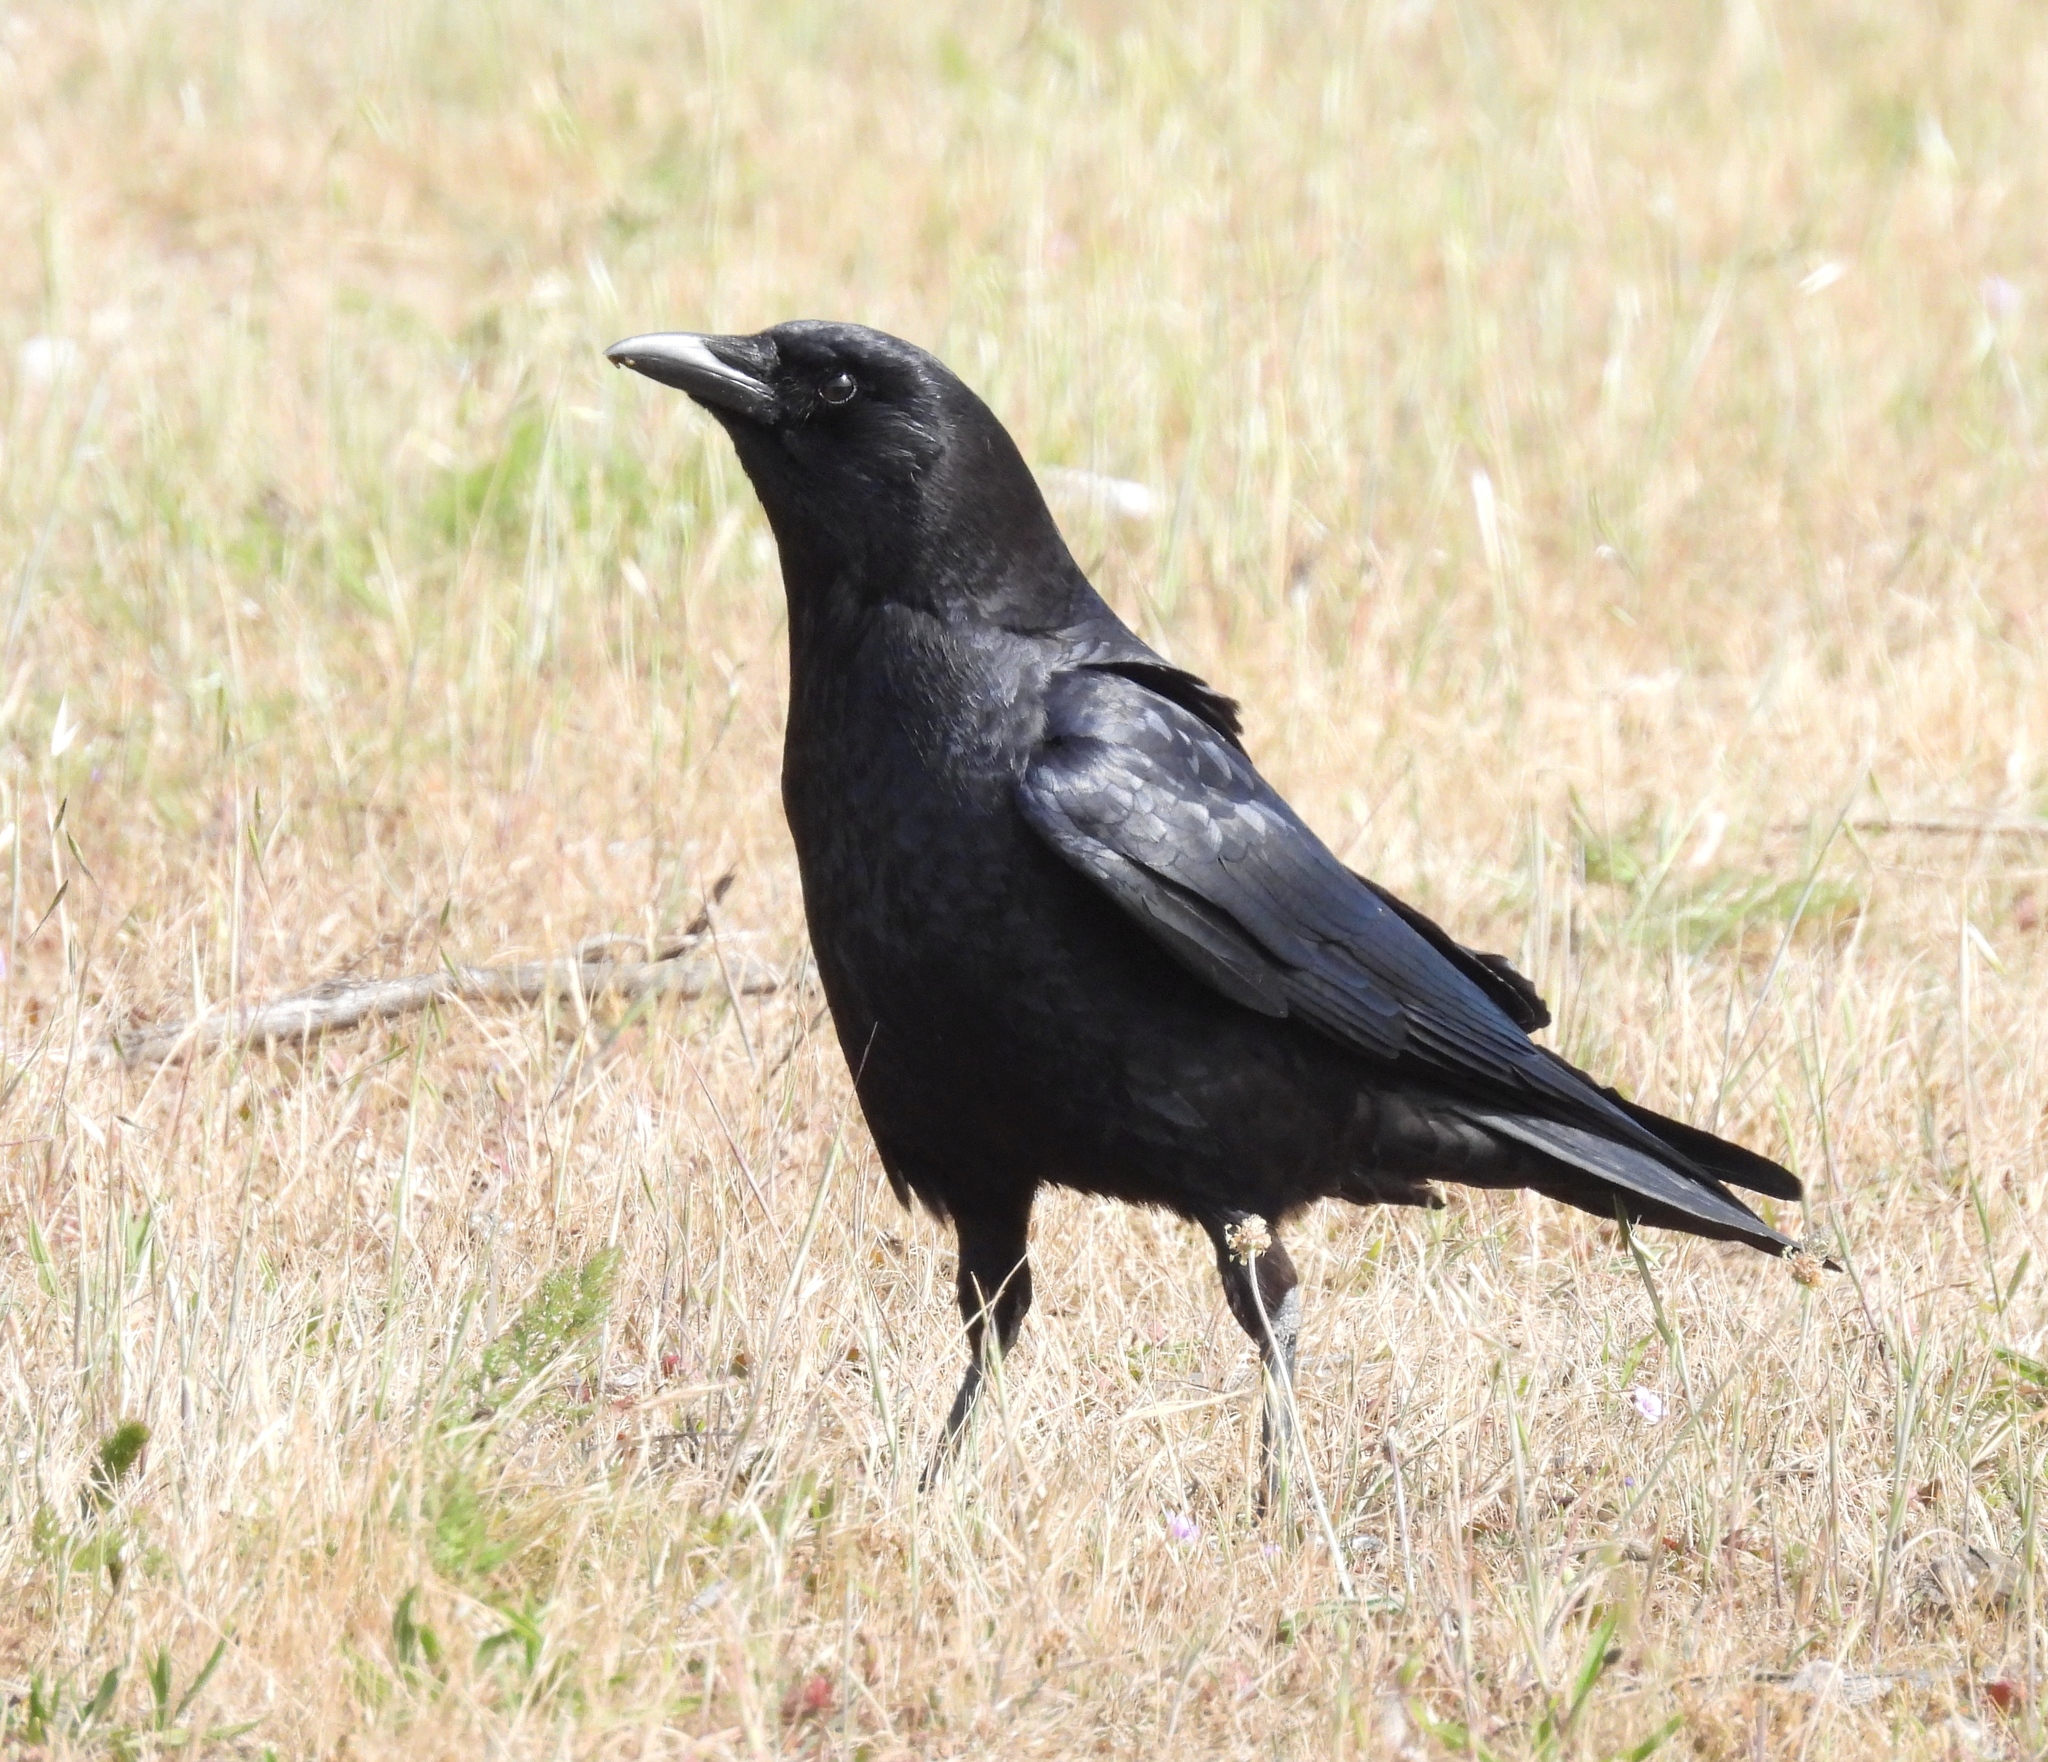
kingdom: Animalia
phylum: Chordata
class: Aves
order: Passeriformes
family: Corvidae
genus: Corvus
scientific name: Corvus brachyrhynchos
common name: American crow
